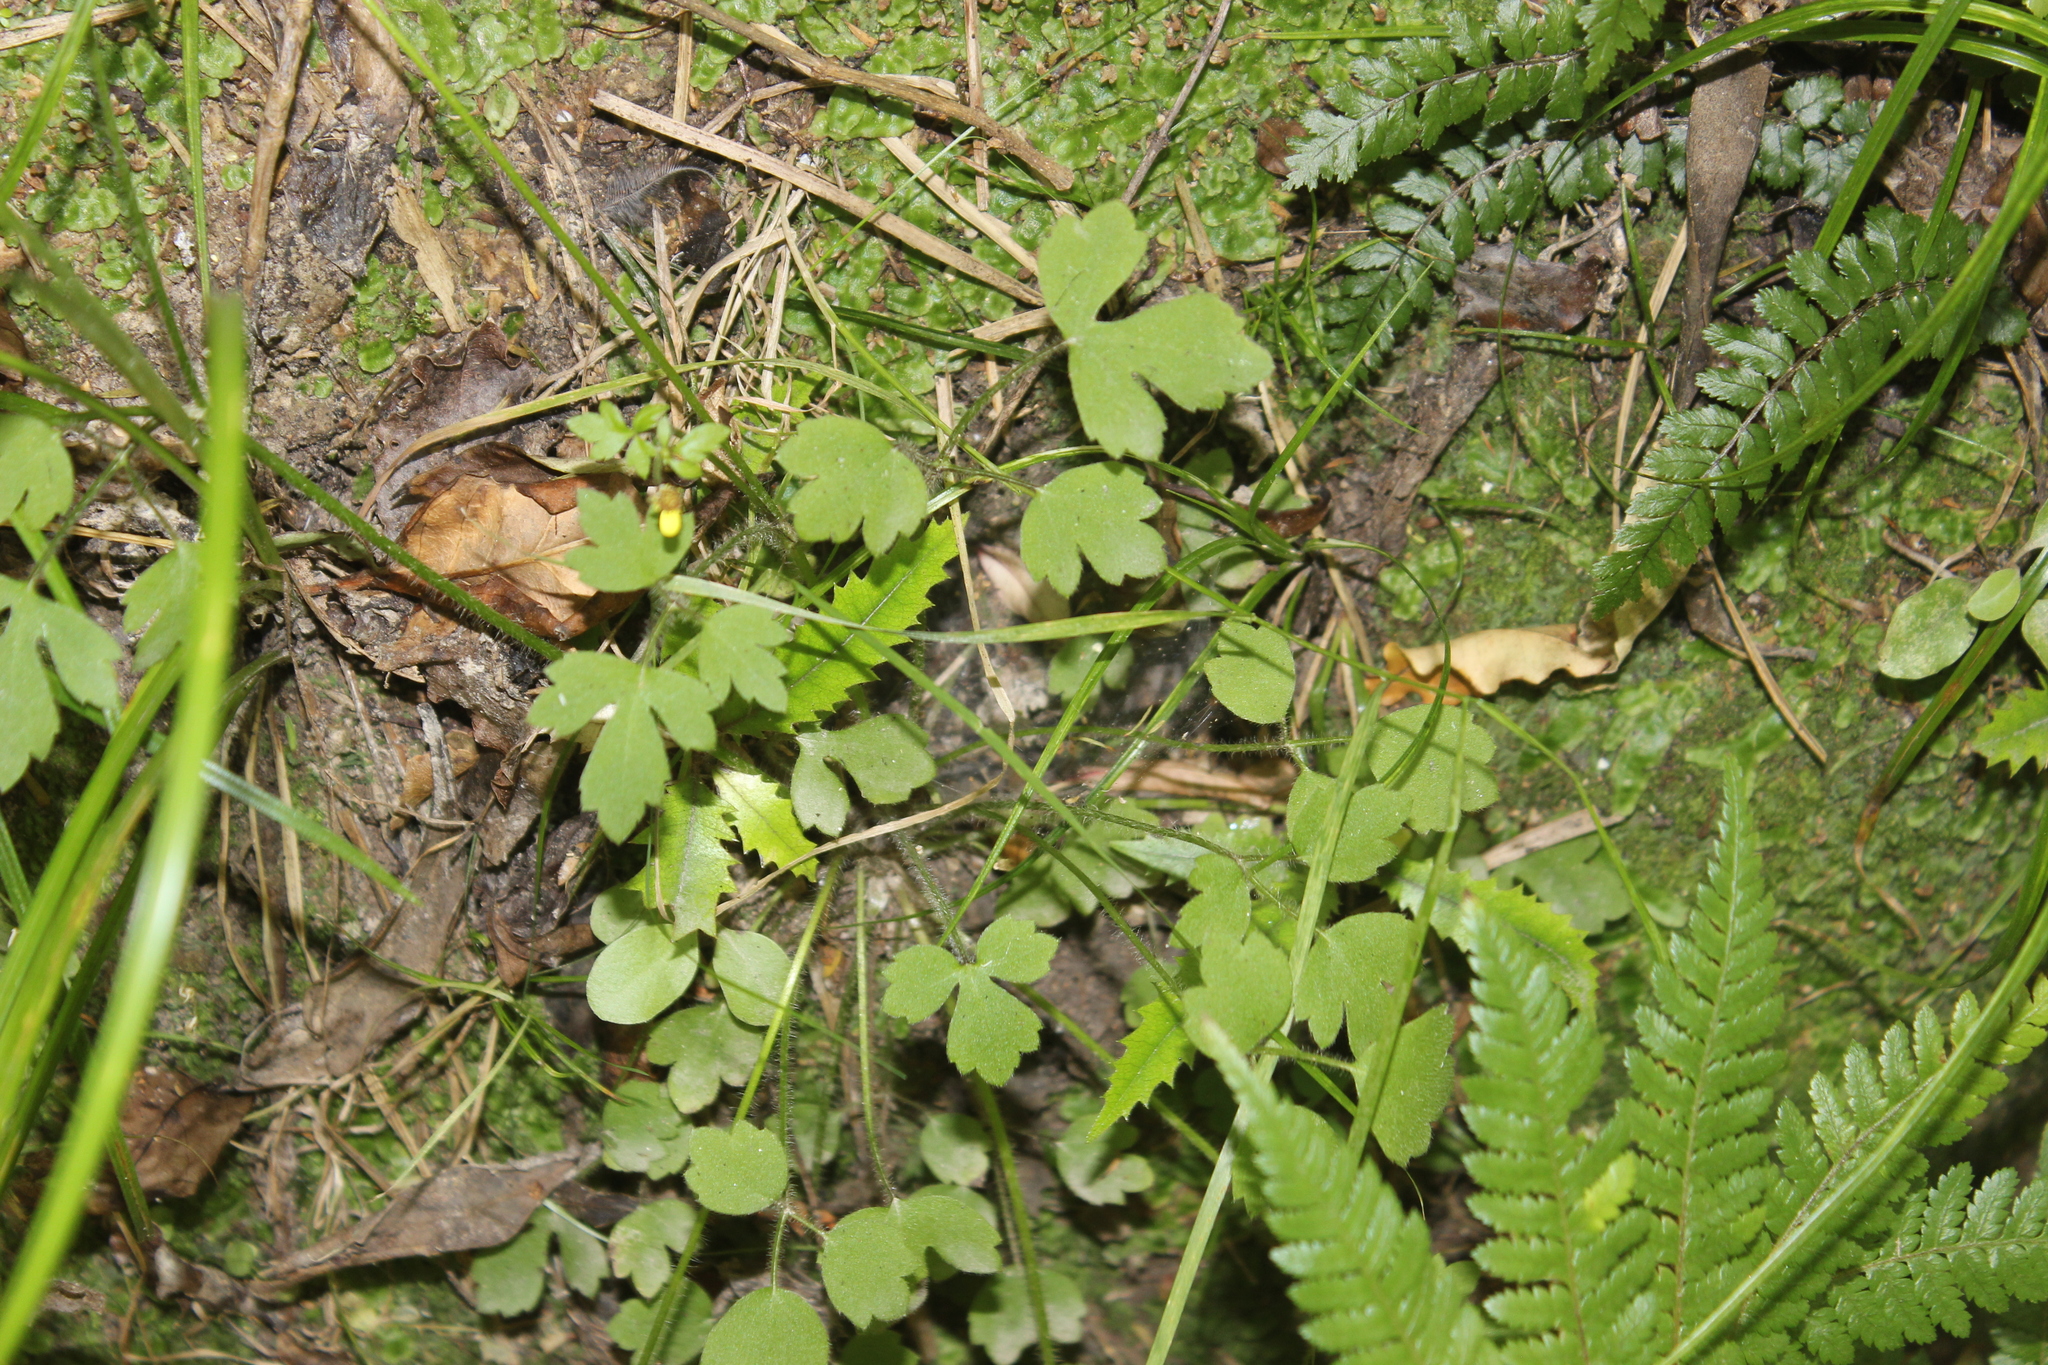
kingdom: Plantae
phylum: Tracheophyta
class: Magnoliopsida
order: Ranunculales
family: Ranunculaceae
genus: Ranunculus
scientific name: Ranunculus reflexus
